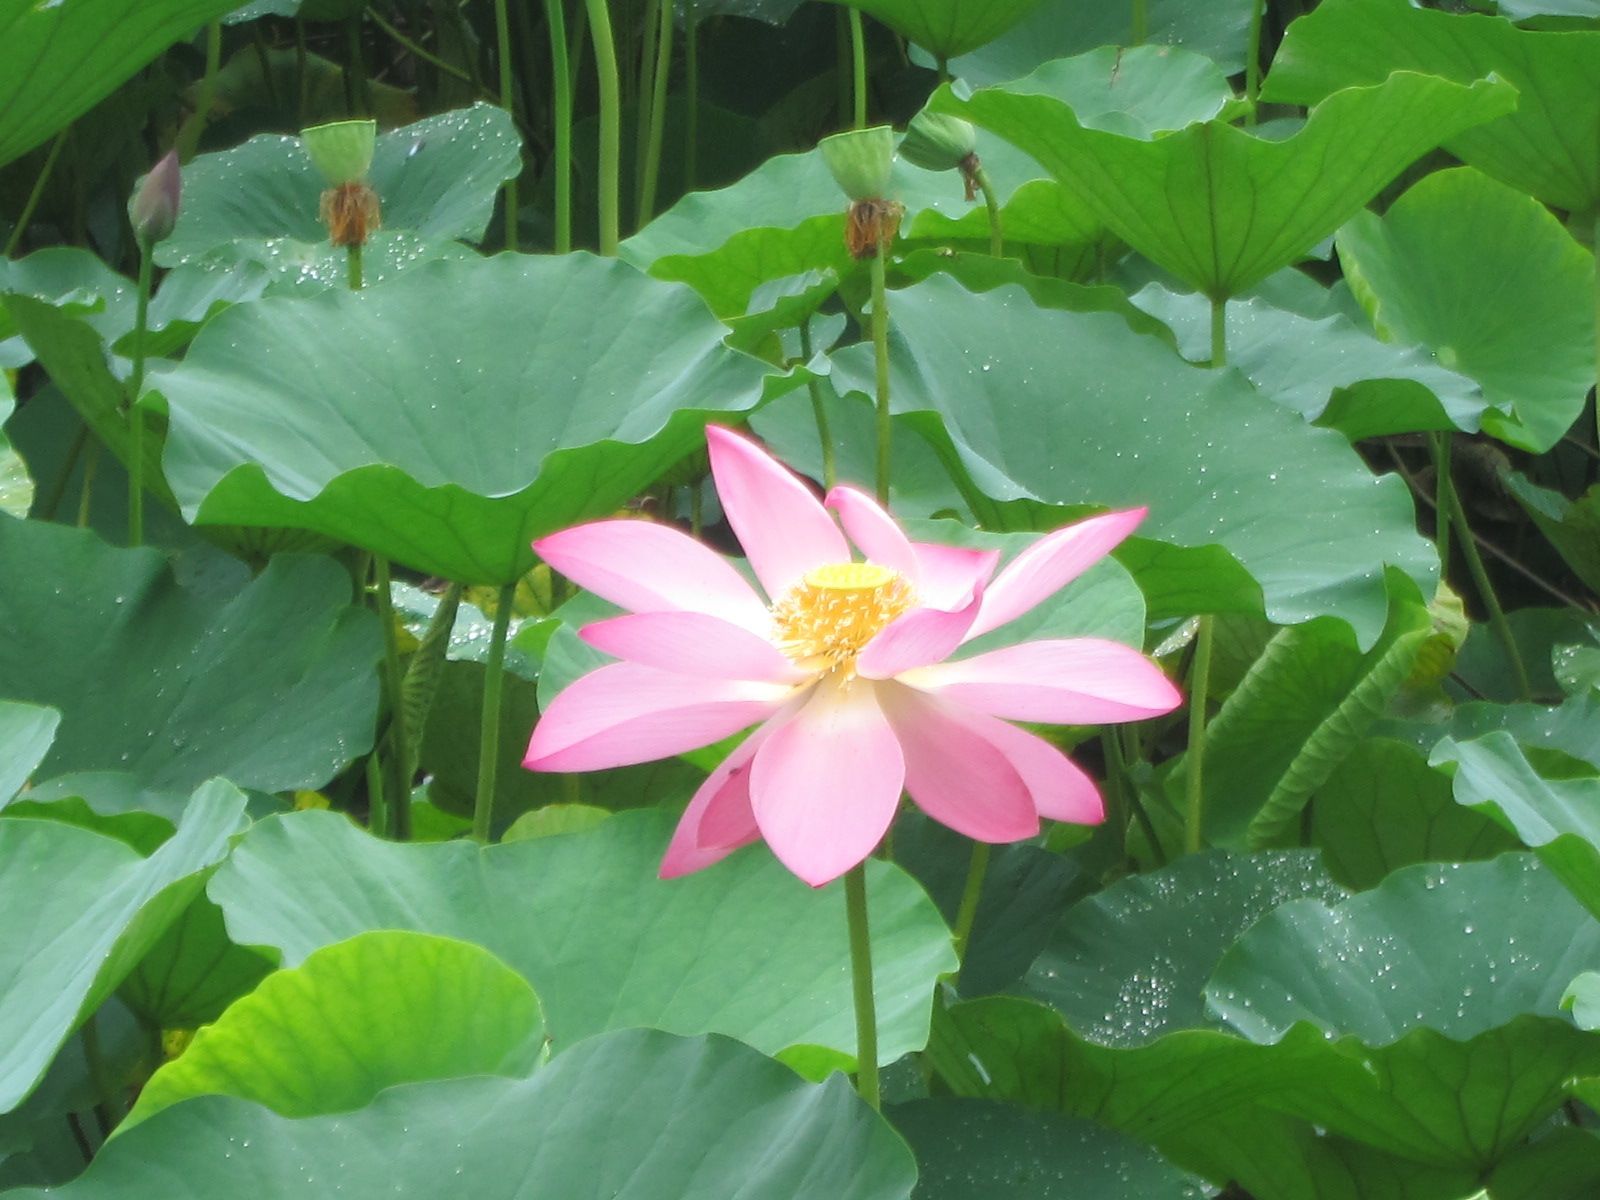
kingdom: Plantae
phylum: Tracheophyta
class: Magnoliopsida
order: Proteales
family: Nelumbonaceae
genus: Nelumbo
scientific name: Nelumbo nucifera
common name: Sacred lotus
